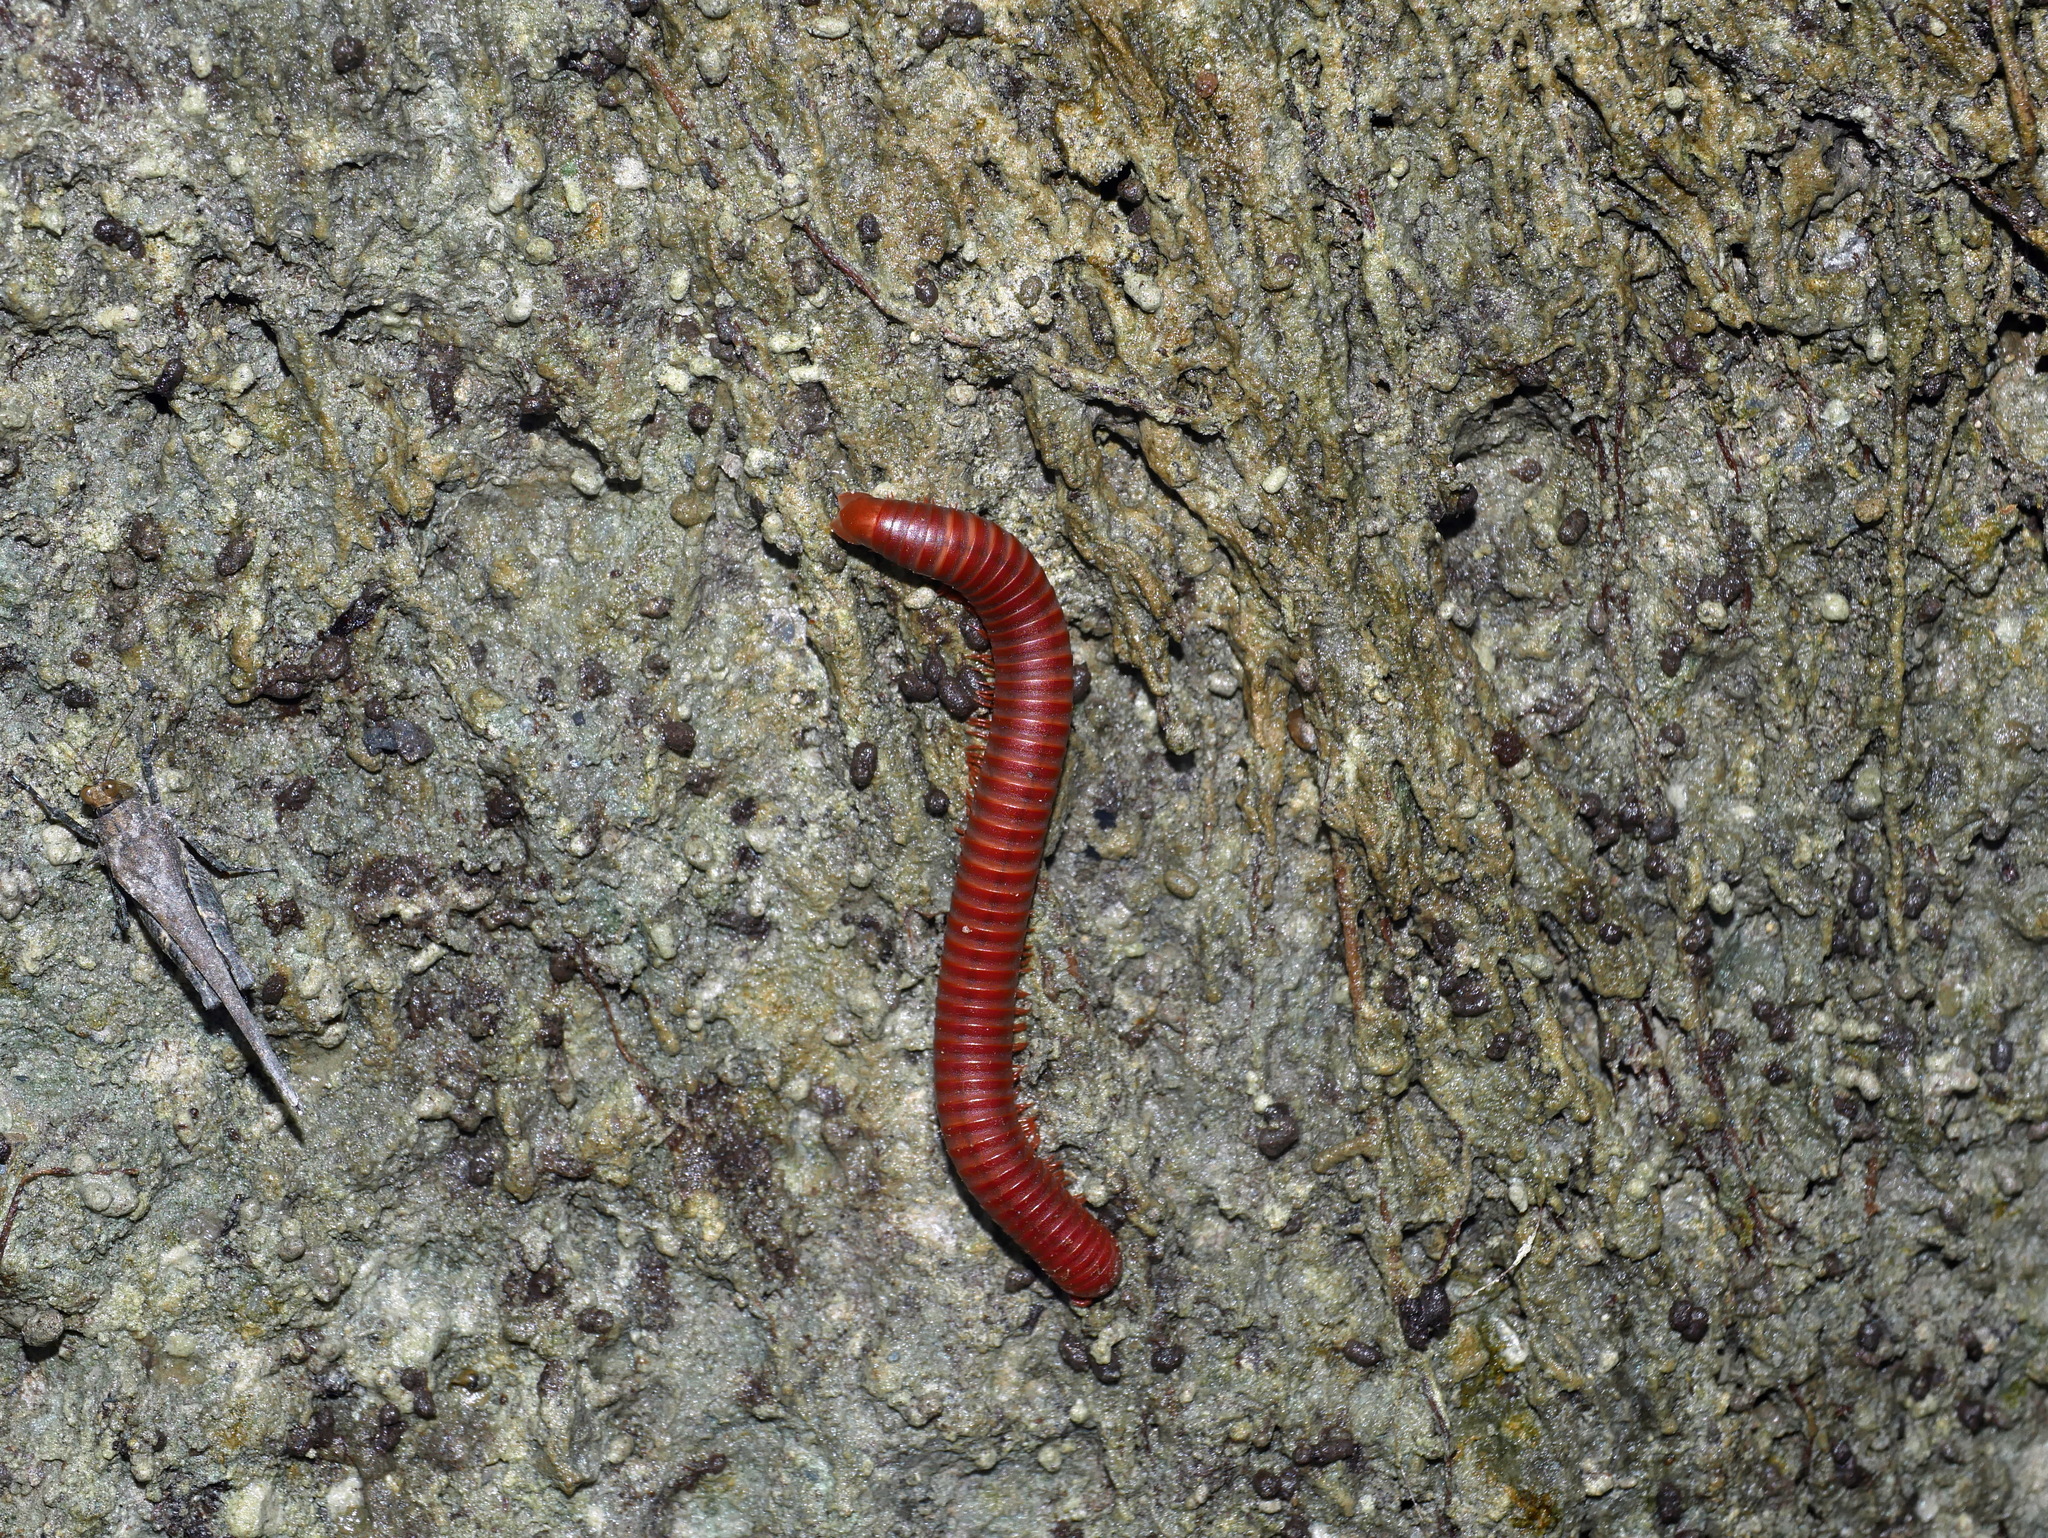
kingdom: Animalia
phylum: Arthropoda
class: Diplopoda
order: Spirobolida
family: Pachybolidae
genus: Trigoniulus
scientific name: Trigoniulus corallinus
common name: Millipede
